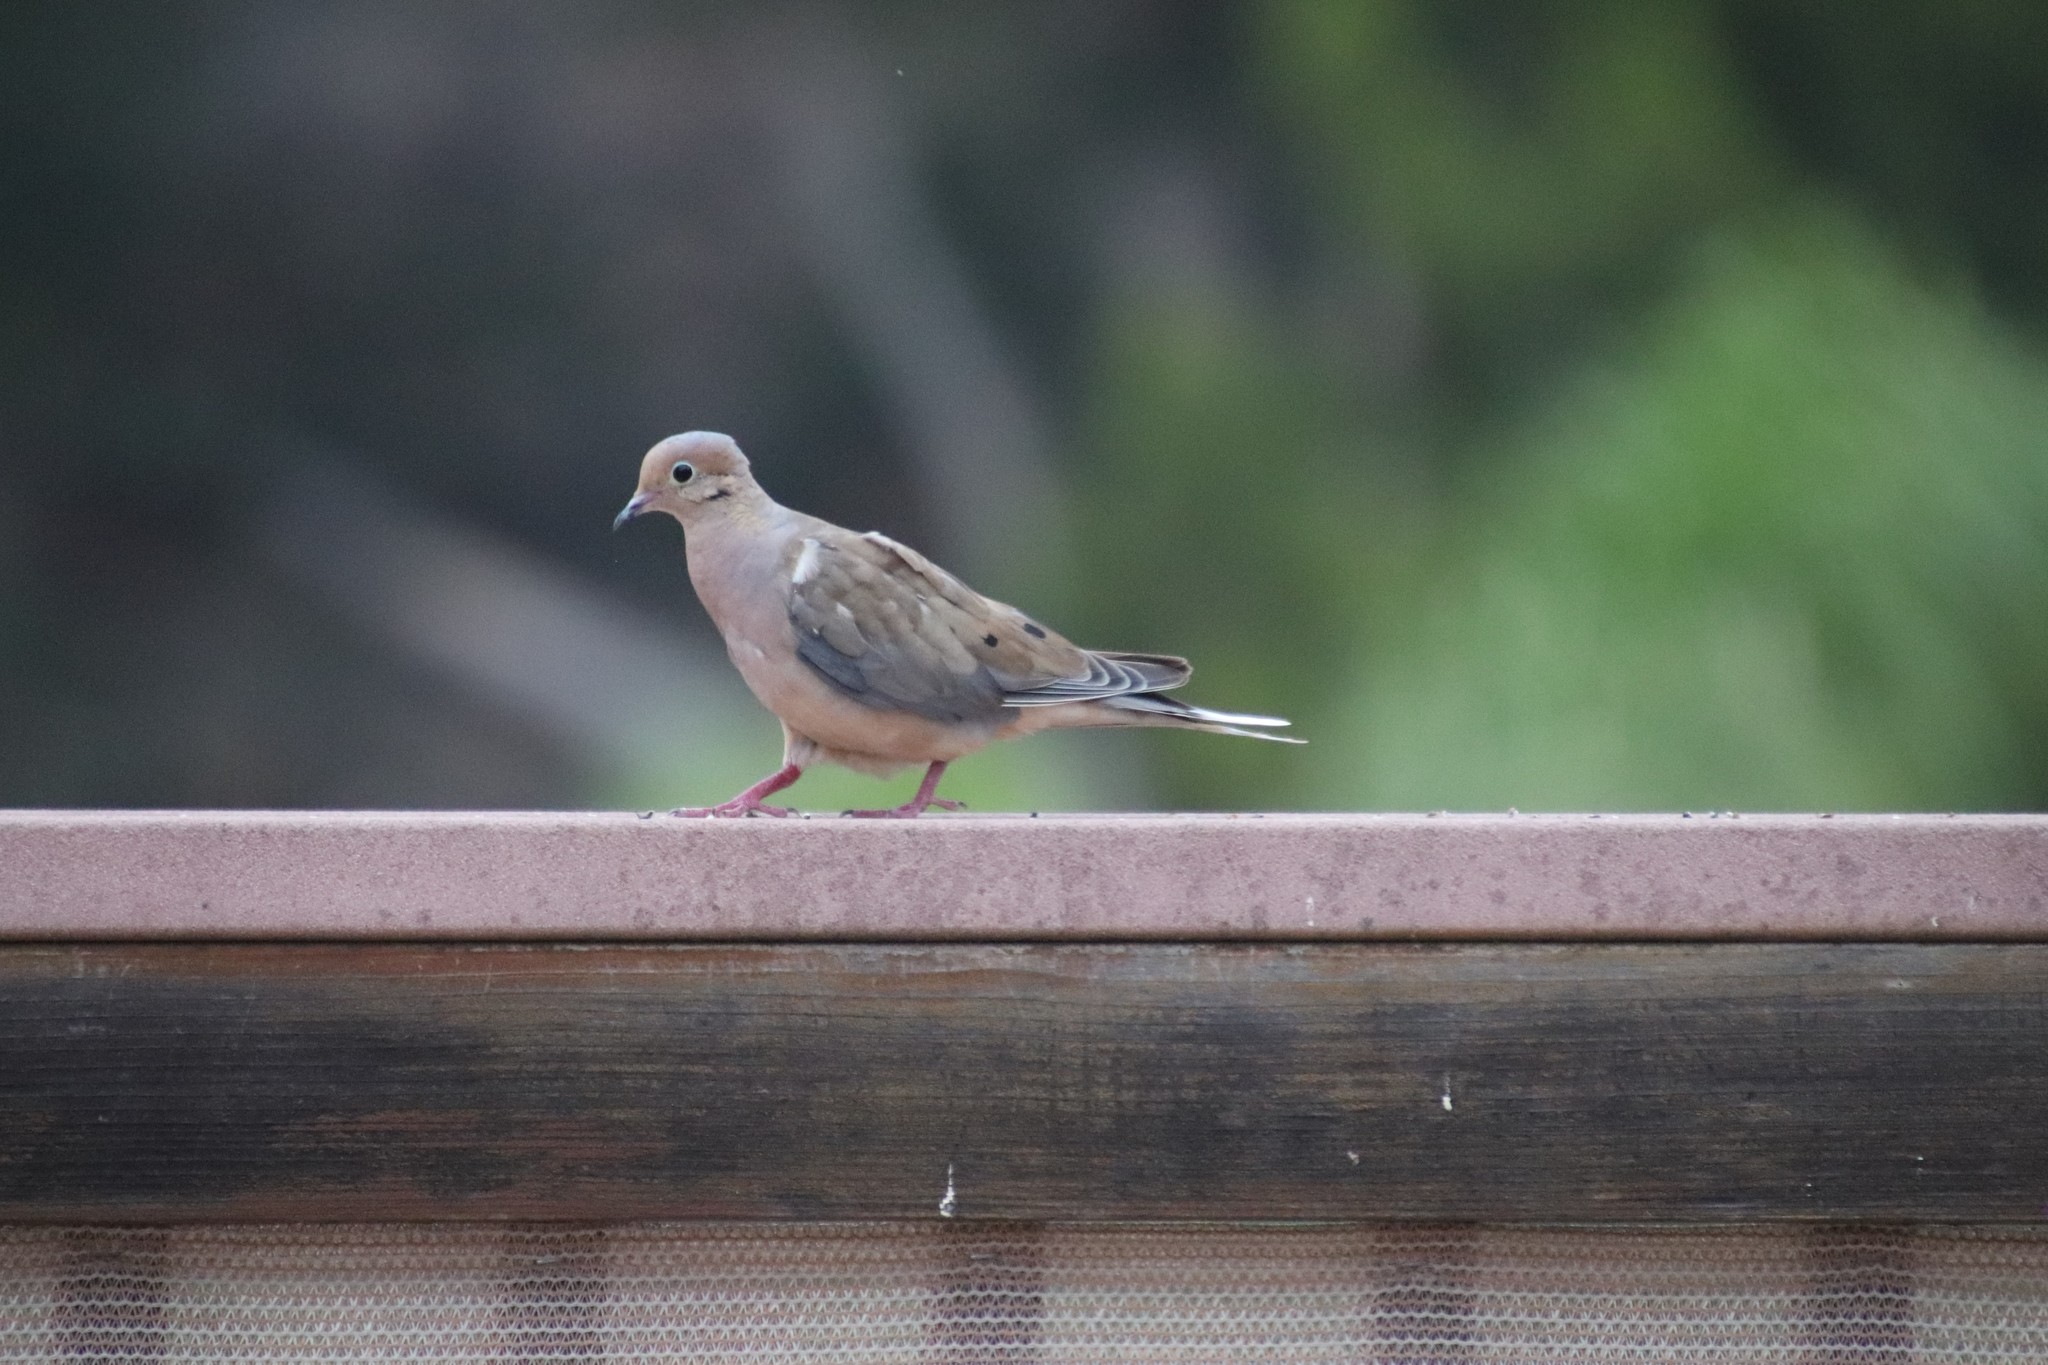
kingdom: Animalia
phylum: Chordata
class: Aves
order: Columbiformes
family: Columbidae
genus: Zenaida
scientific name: Zenaida macroura
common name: Mourning dove
